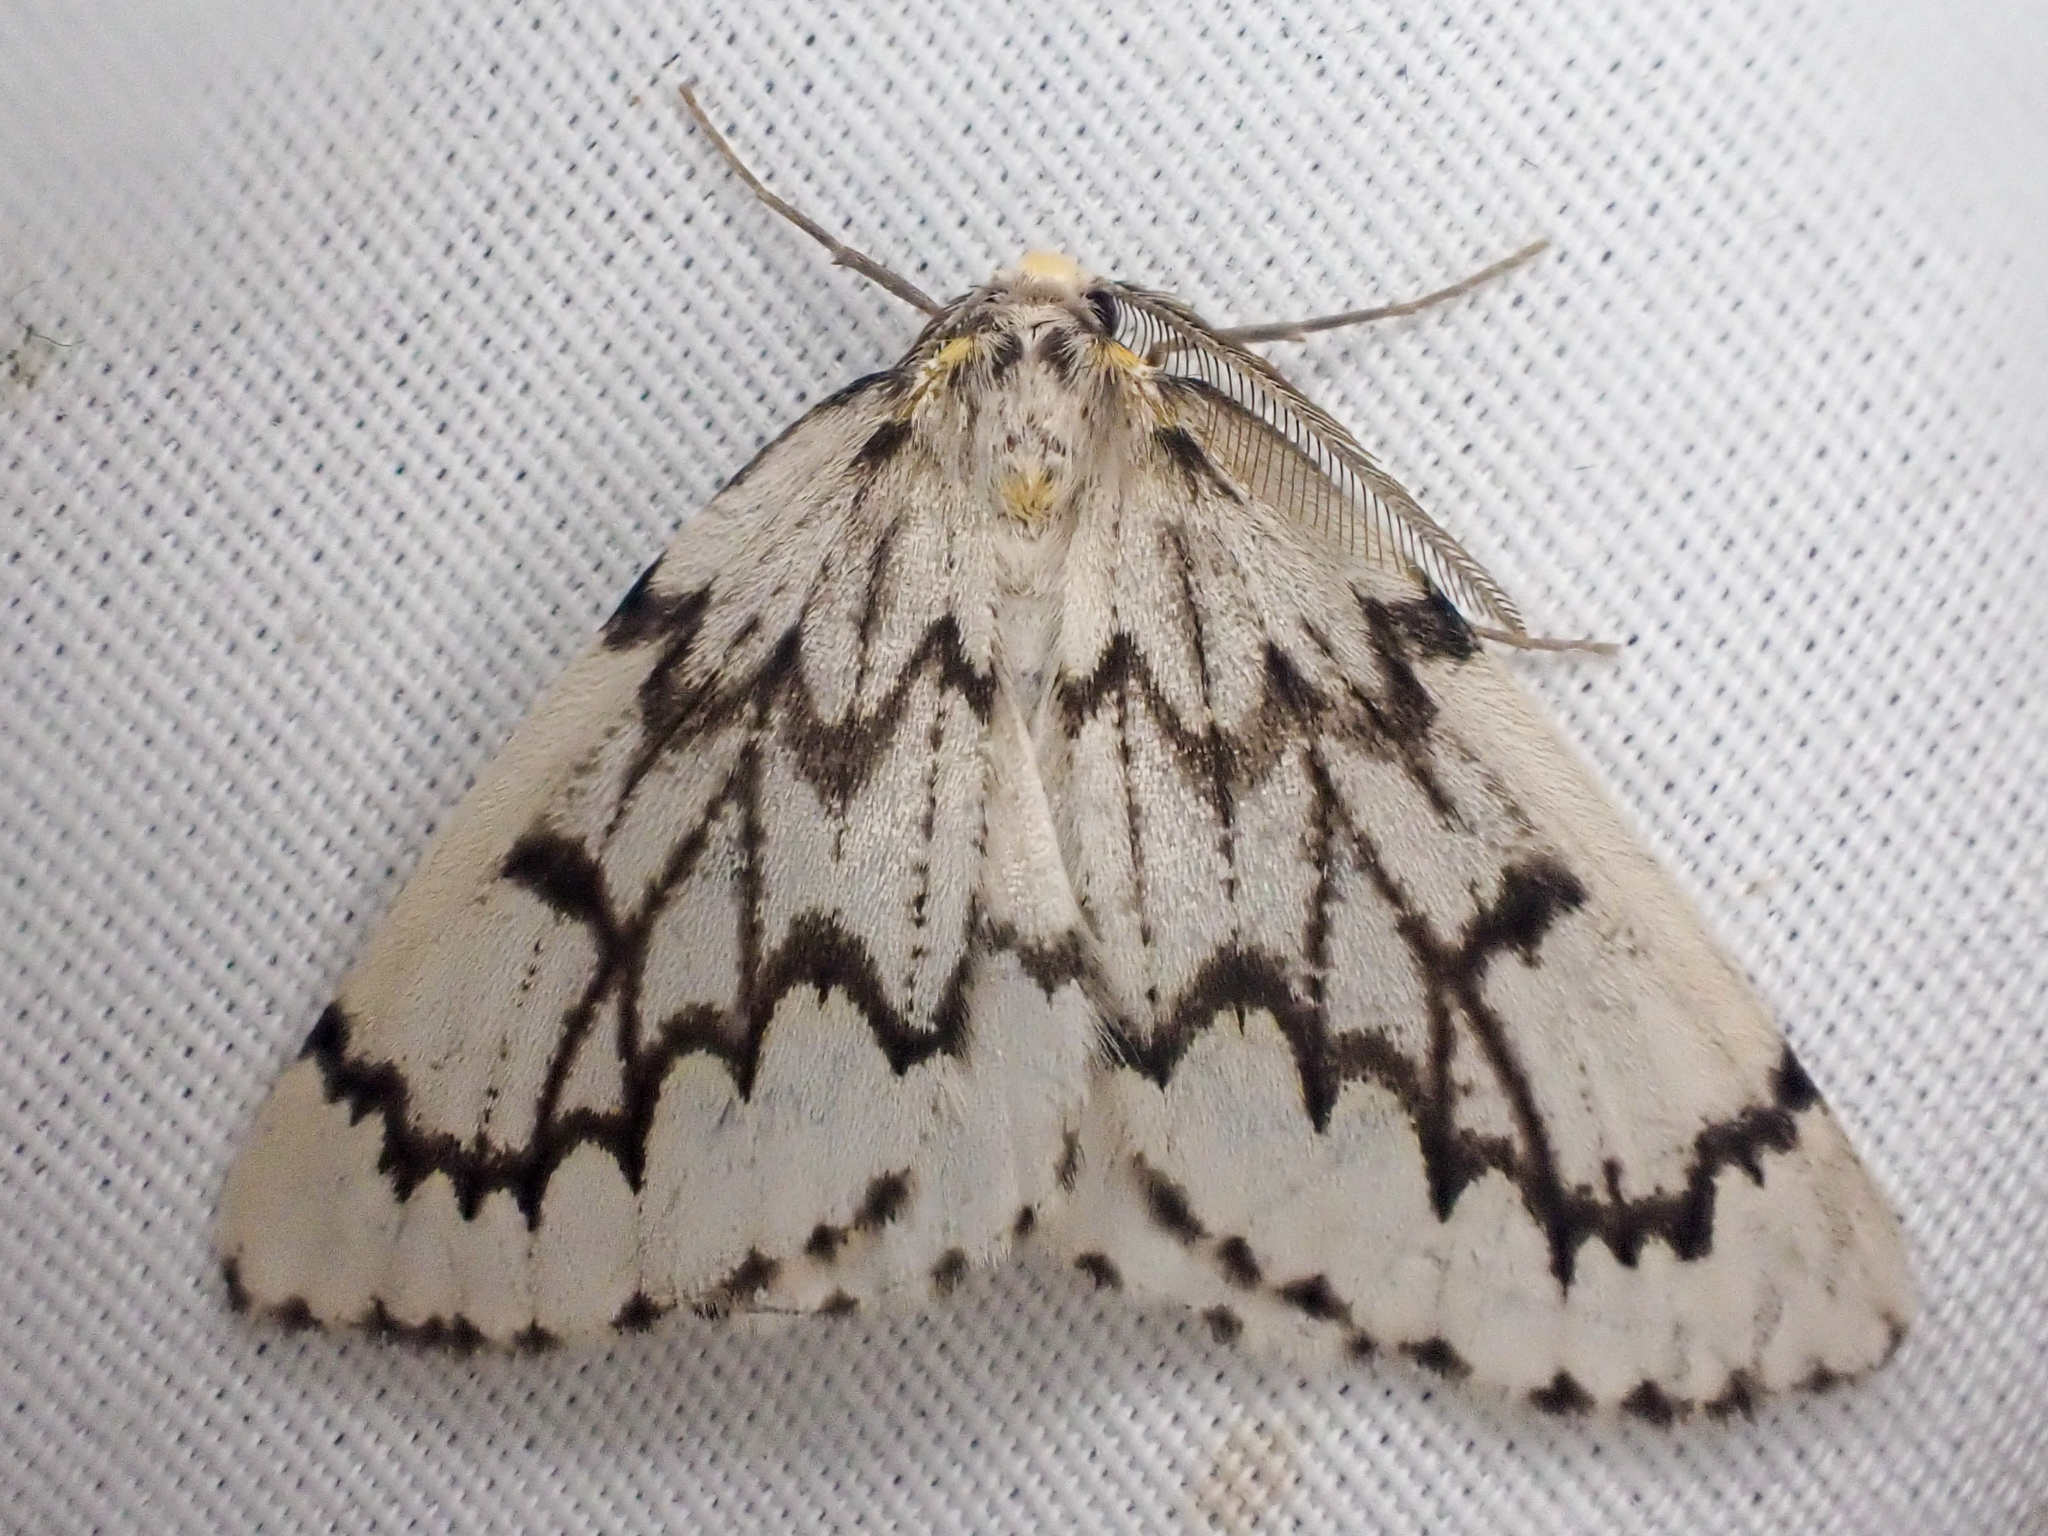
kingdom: Animalia
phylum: Arthropoda
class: Insecta
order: Lepidoptera
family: Geometridae
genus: Nepytia
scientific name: Nepytia phantasmaria
